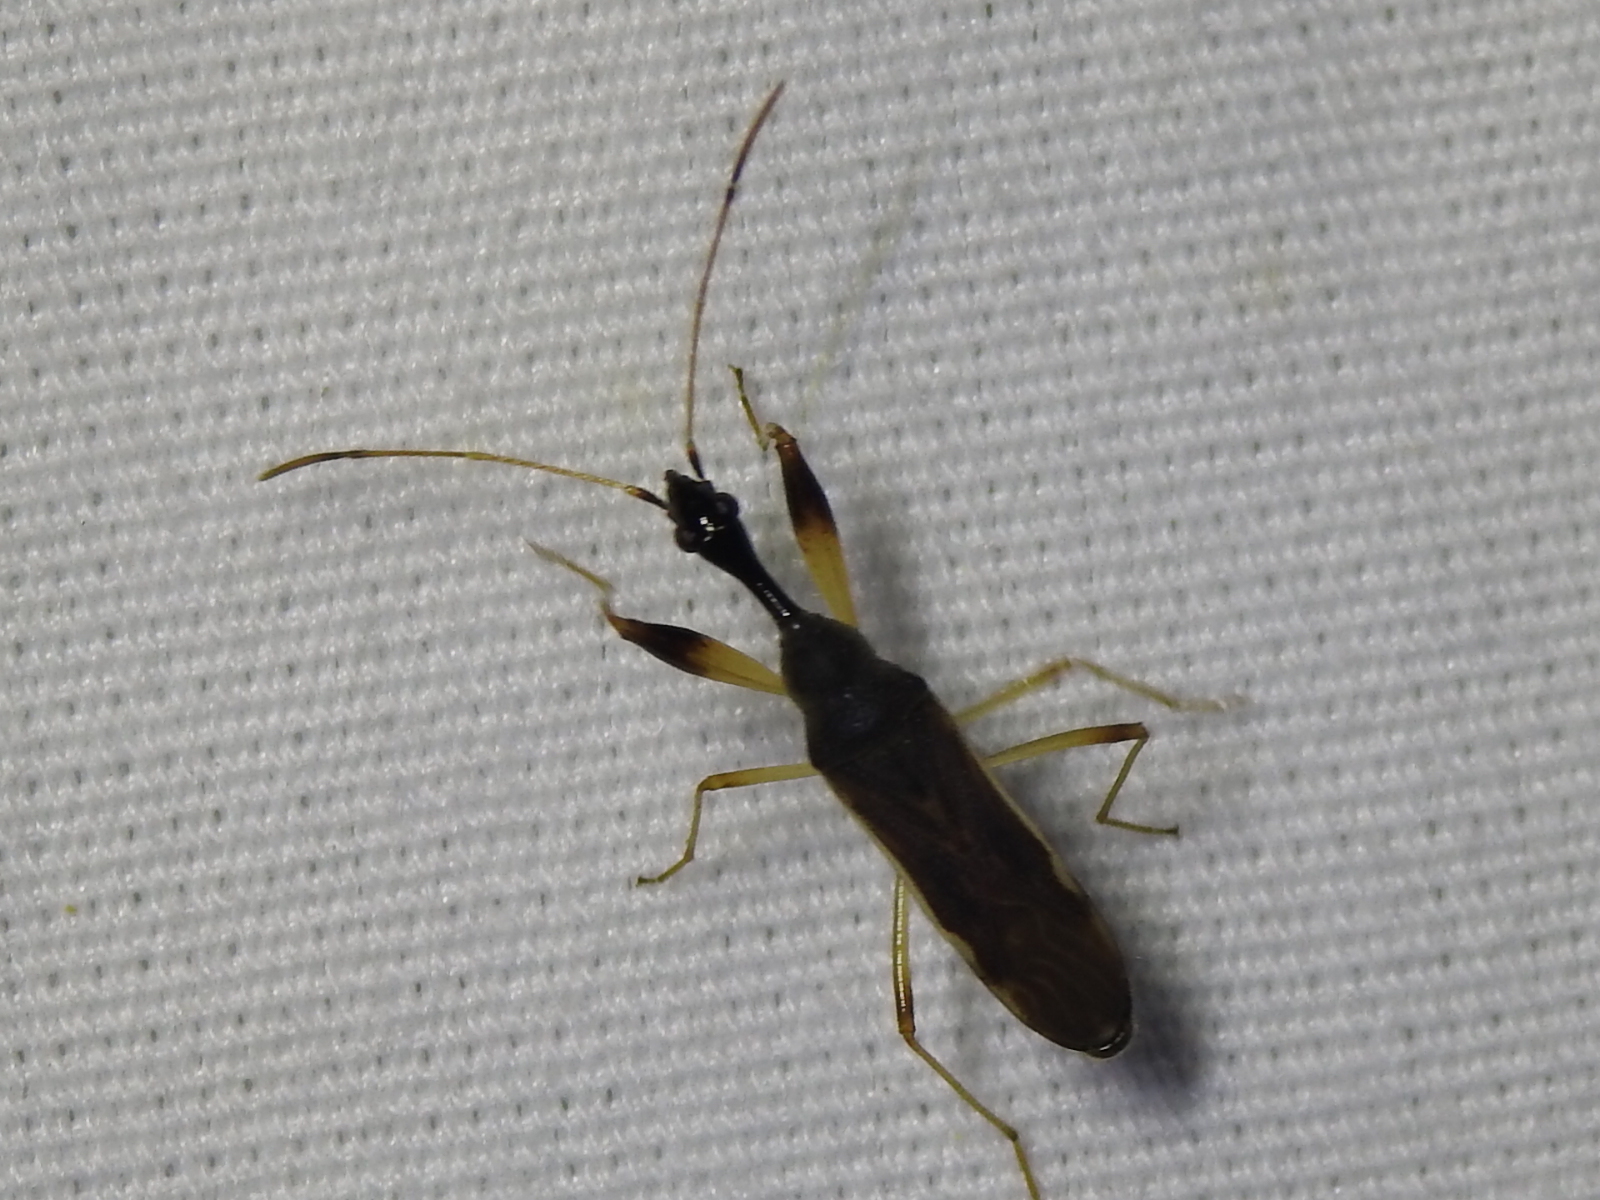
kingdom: Animalia
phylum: Arthropoda
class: Insecta
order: Hemiptera
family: Rhyparochromidae
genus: Myodocha
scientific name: Myodocha serripes
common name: Long-necked seed bug
